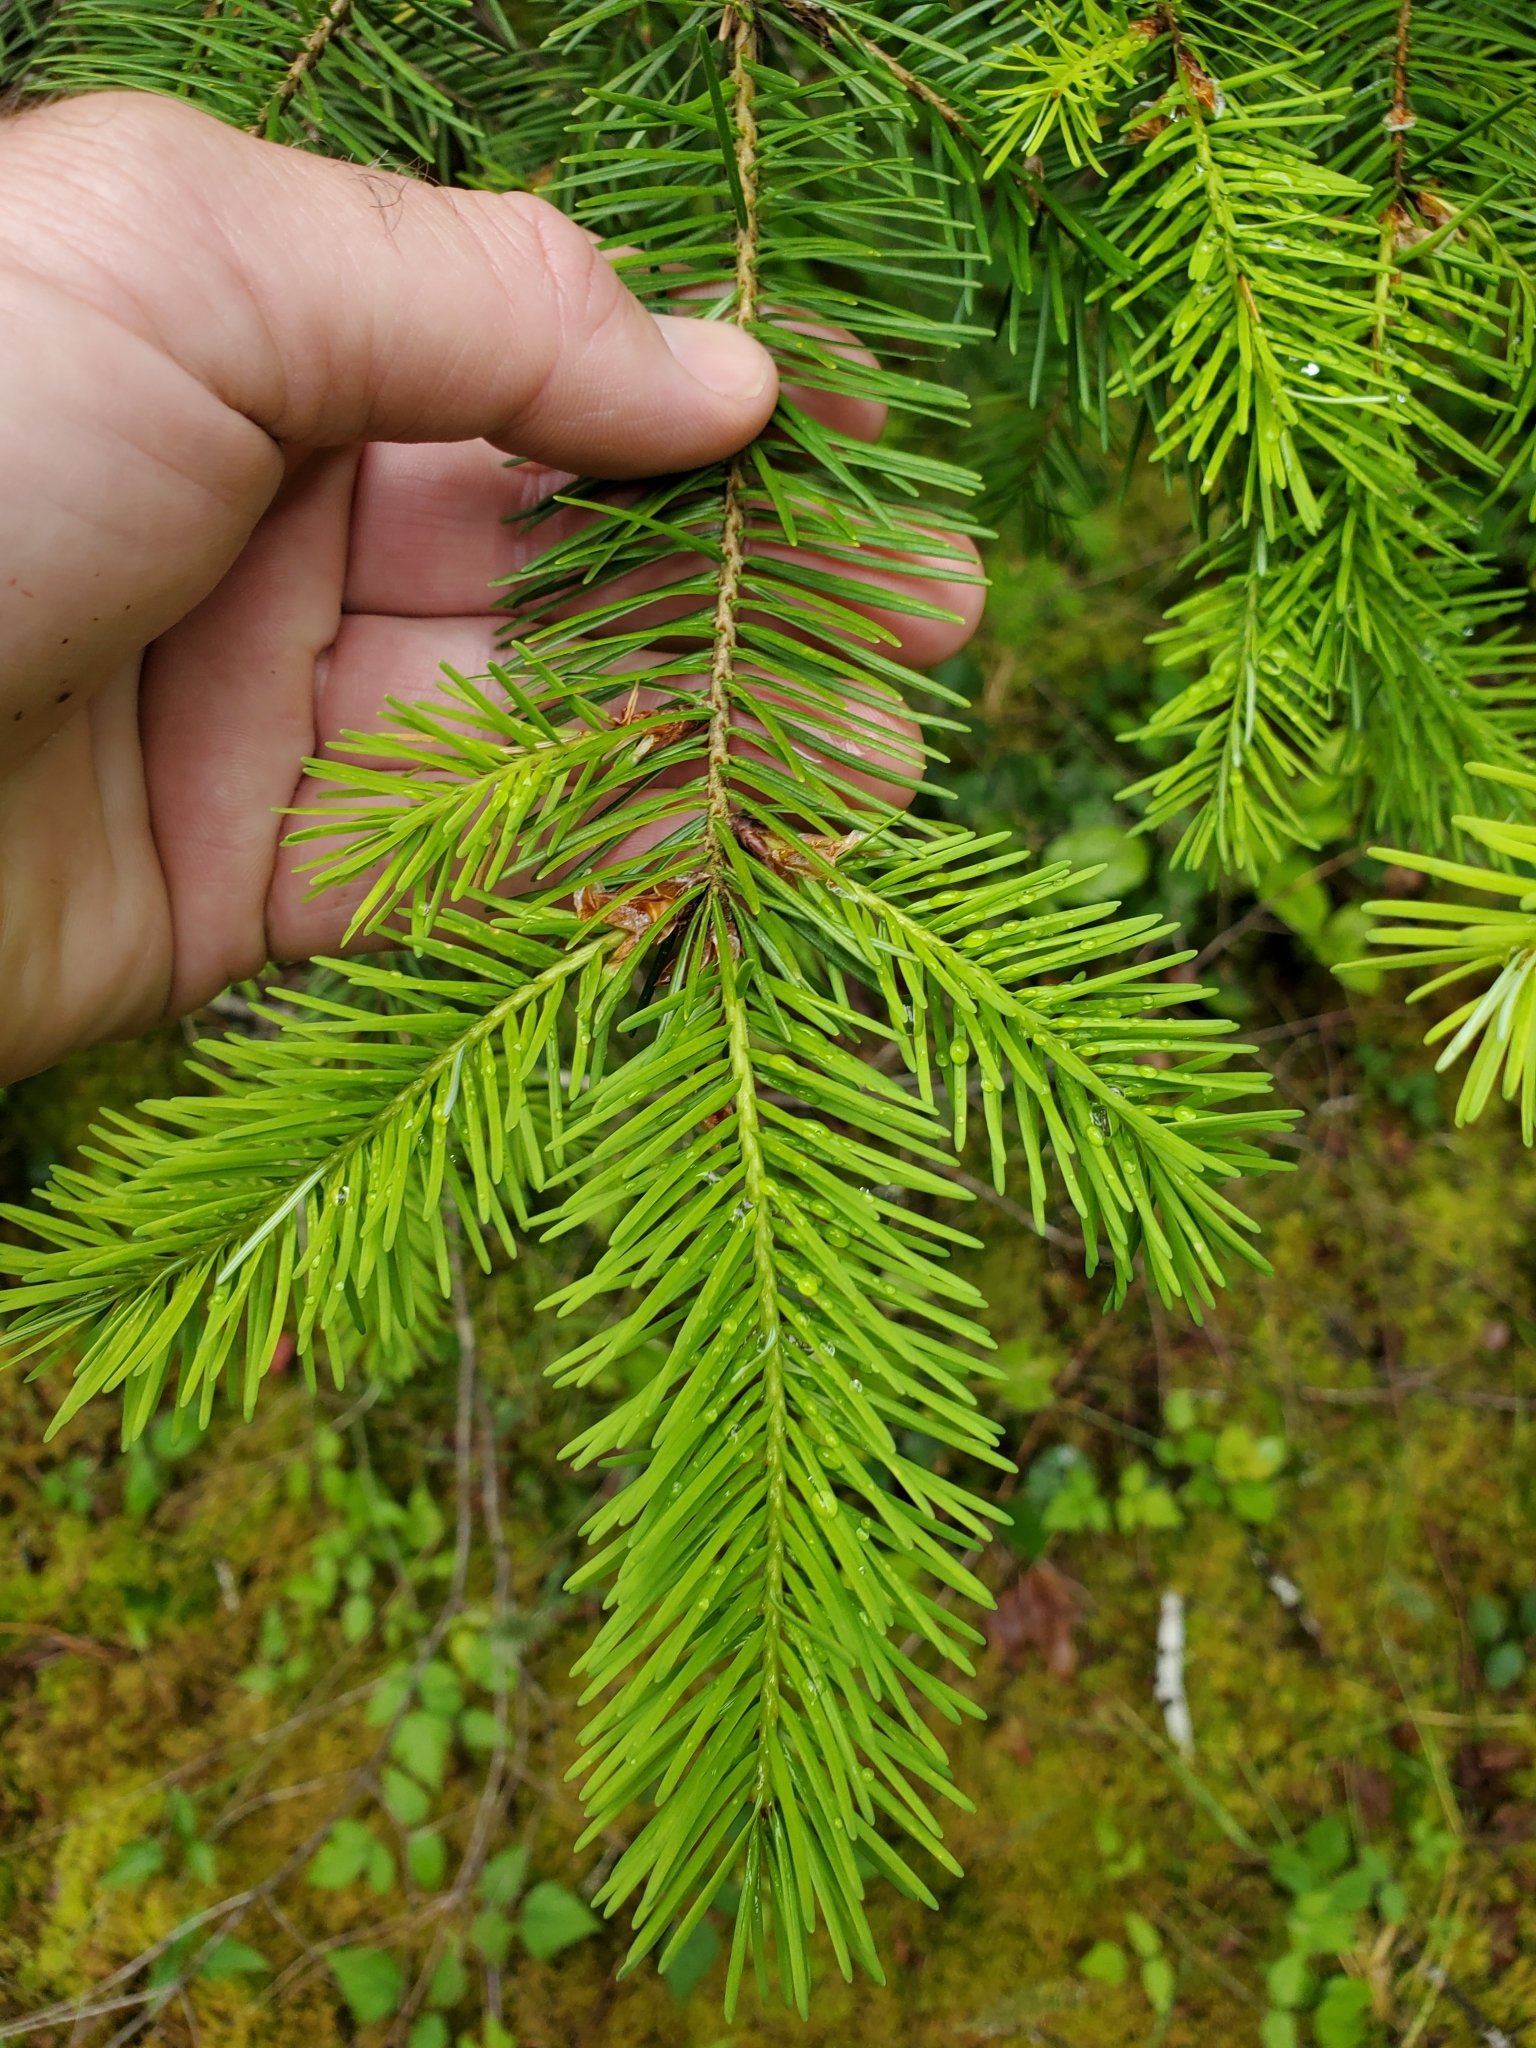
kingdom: Plantae
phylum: Tracheophyta
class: Pinopsida
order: Pinales
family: Pinaceae
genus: Pseudotsuga
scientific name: Pseudotsuga menziesii
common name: Douglas fir
